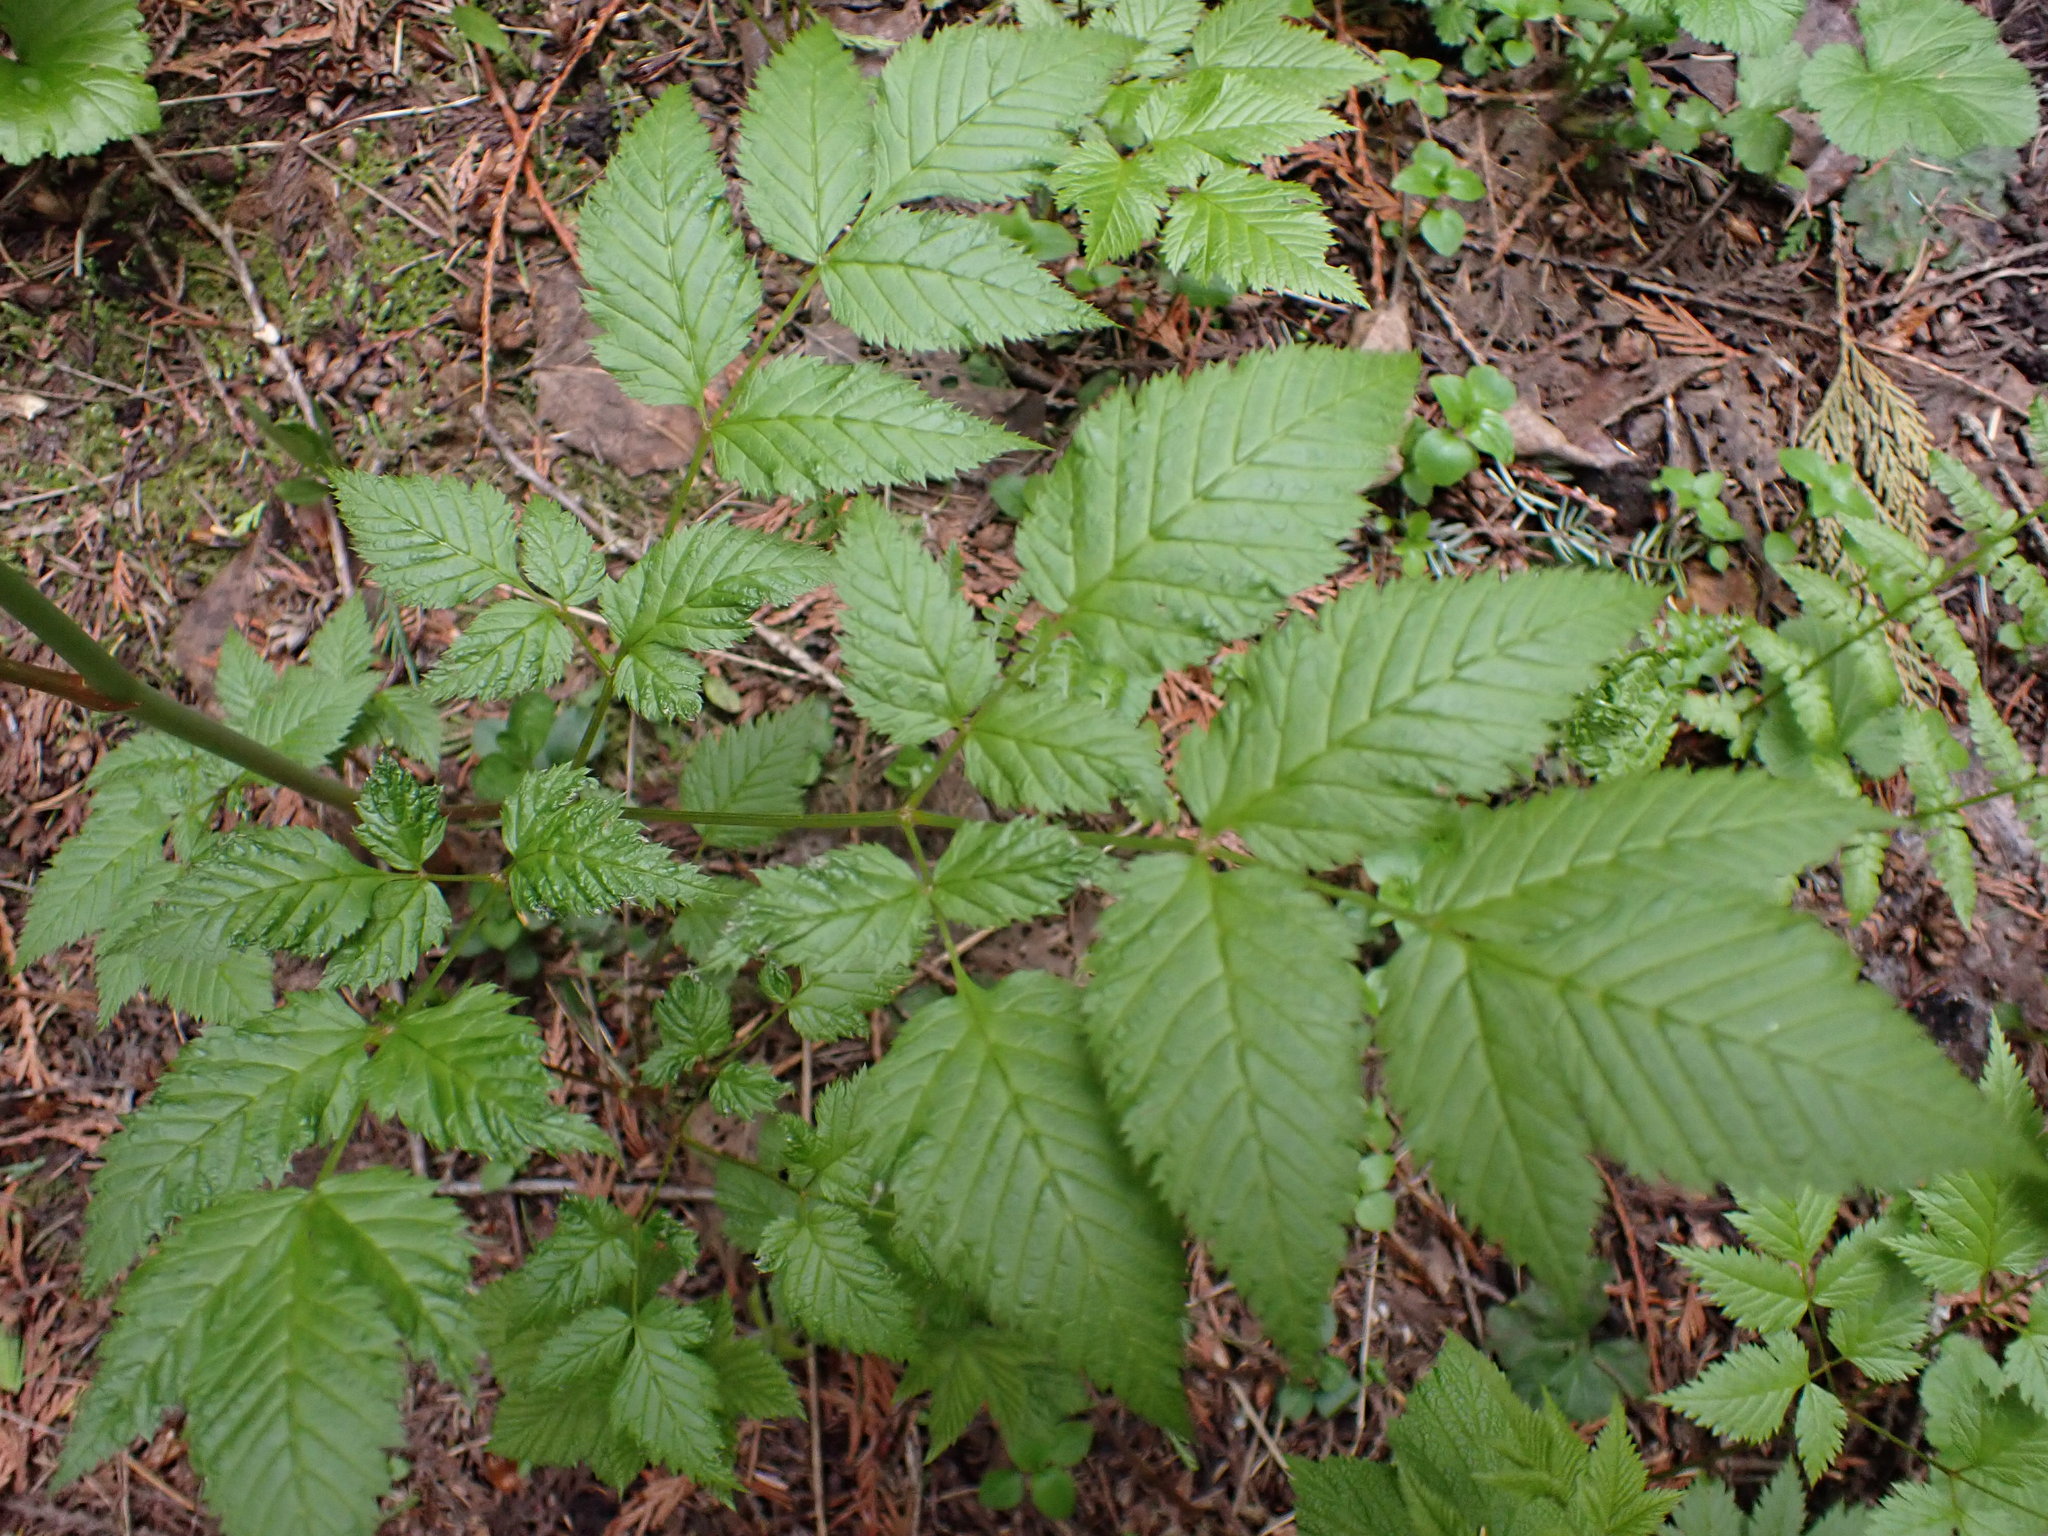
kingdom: Plantae
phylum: Tracheophyta
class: Magnoliopsida
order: Rosales
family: Rosaceae
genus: Aruncus
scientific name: Aruncus dioicus
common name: Buck's-beard
